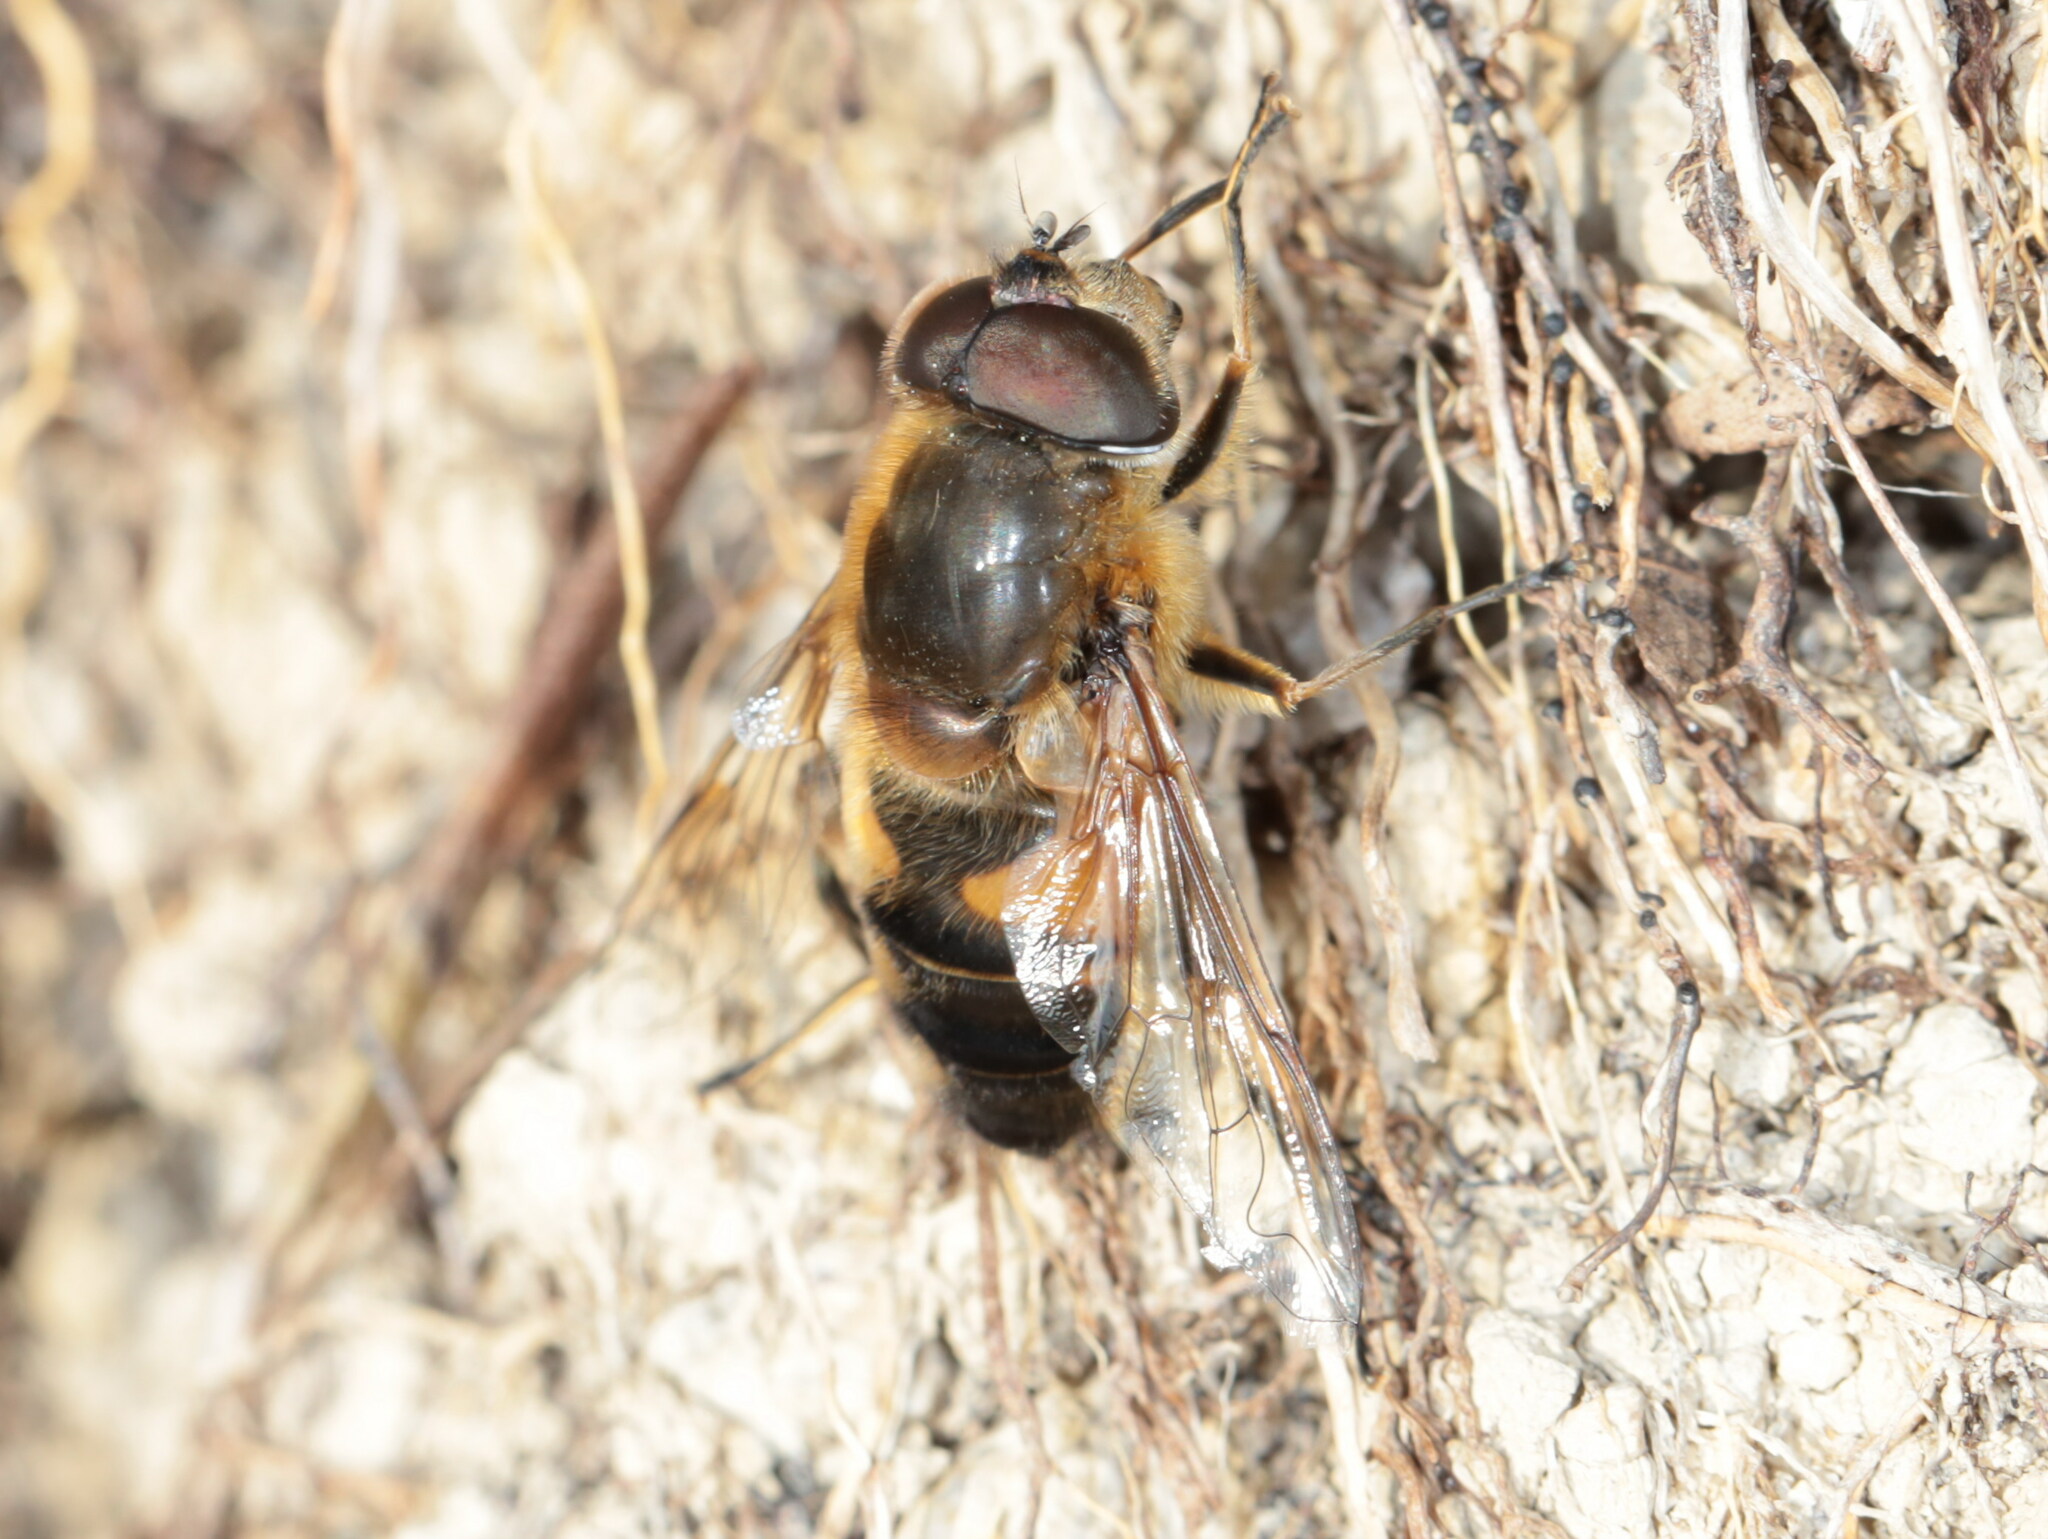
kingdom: Animalia
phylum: Arthropoda
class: Insecta
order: Diptera
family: Syrphidae
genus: Eristalis
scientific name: Eristalis pertinax
